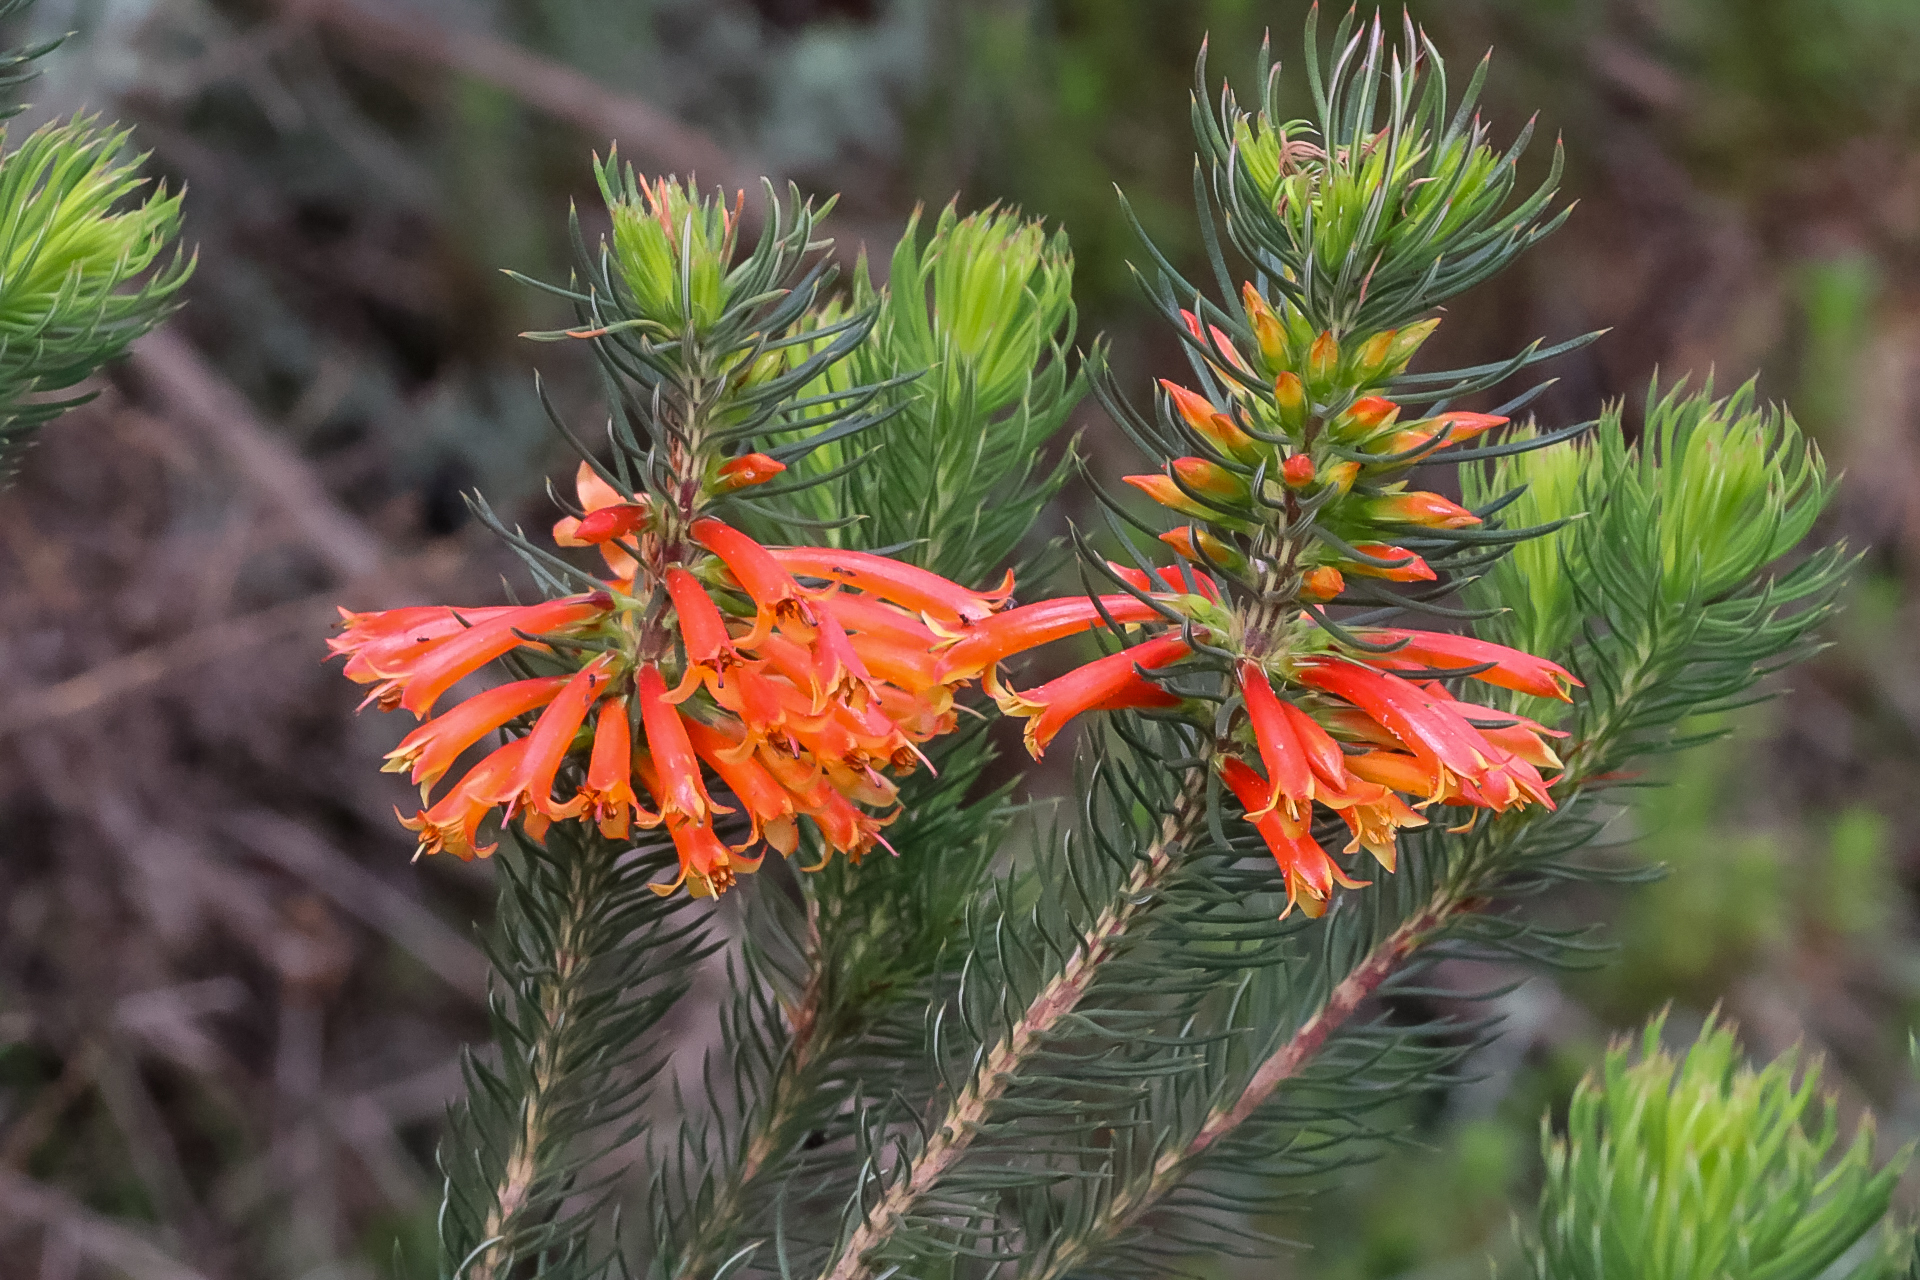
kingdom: Plantae
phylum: Tracheophyta
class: Magnoliopsida
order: Ericales
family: Ericaceae
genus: Erica
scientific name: Erica grandiflora
